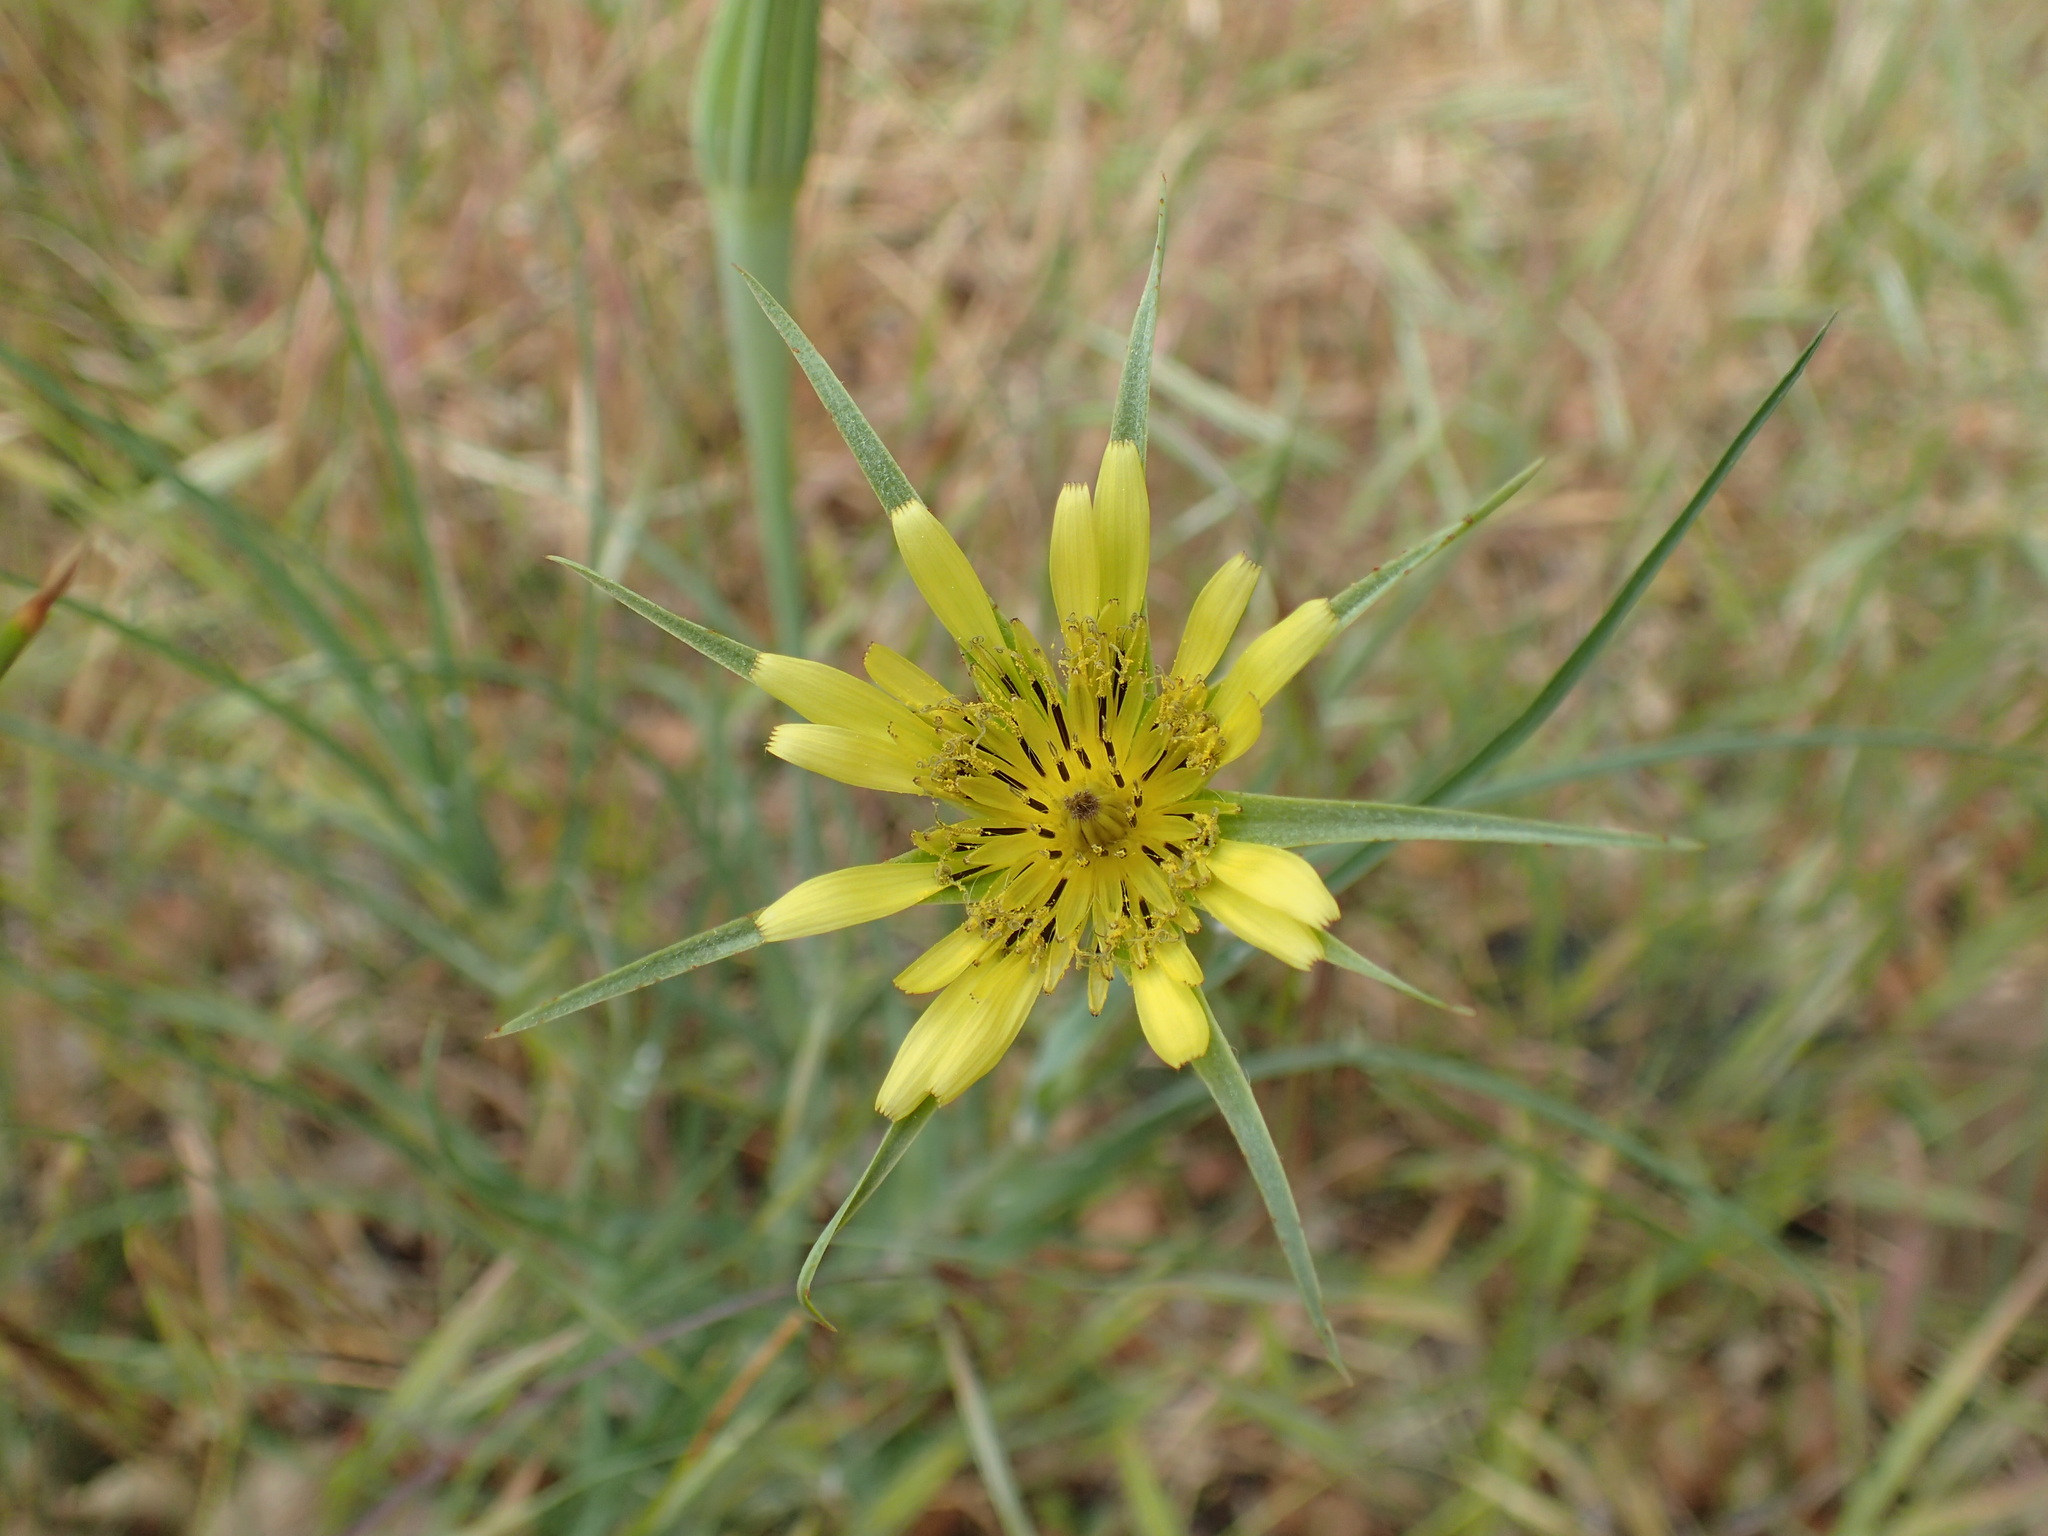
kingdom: Plantae
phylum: Tracheophyta
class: Magnoliopsida
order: Asterales
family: Asteraceae
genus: Tragopogon
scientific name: Tragopogon dubius
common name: Yellow salsify
